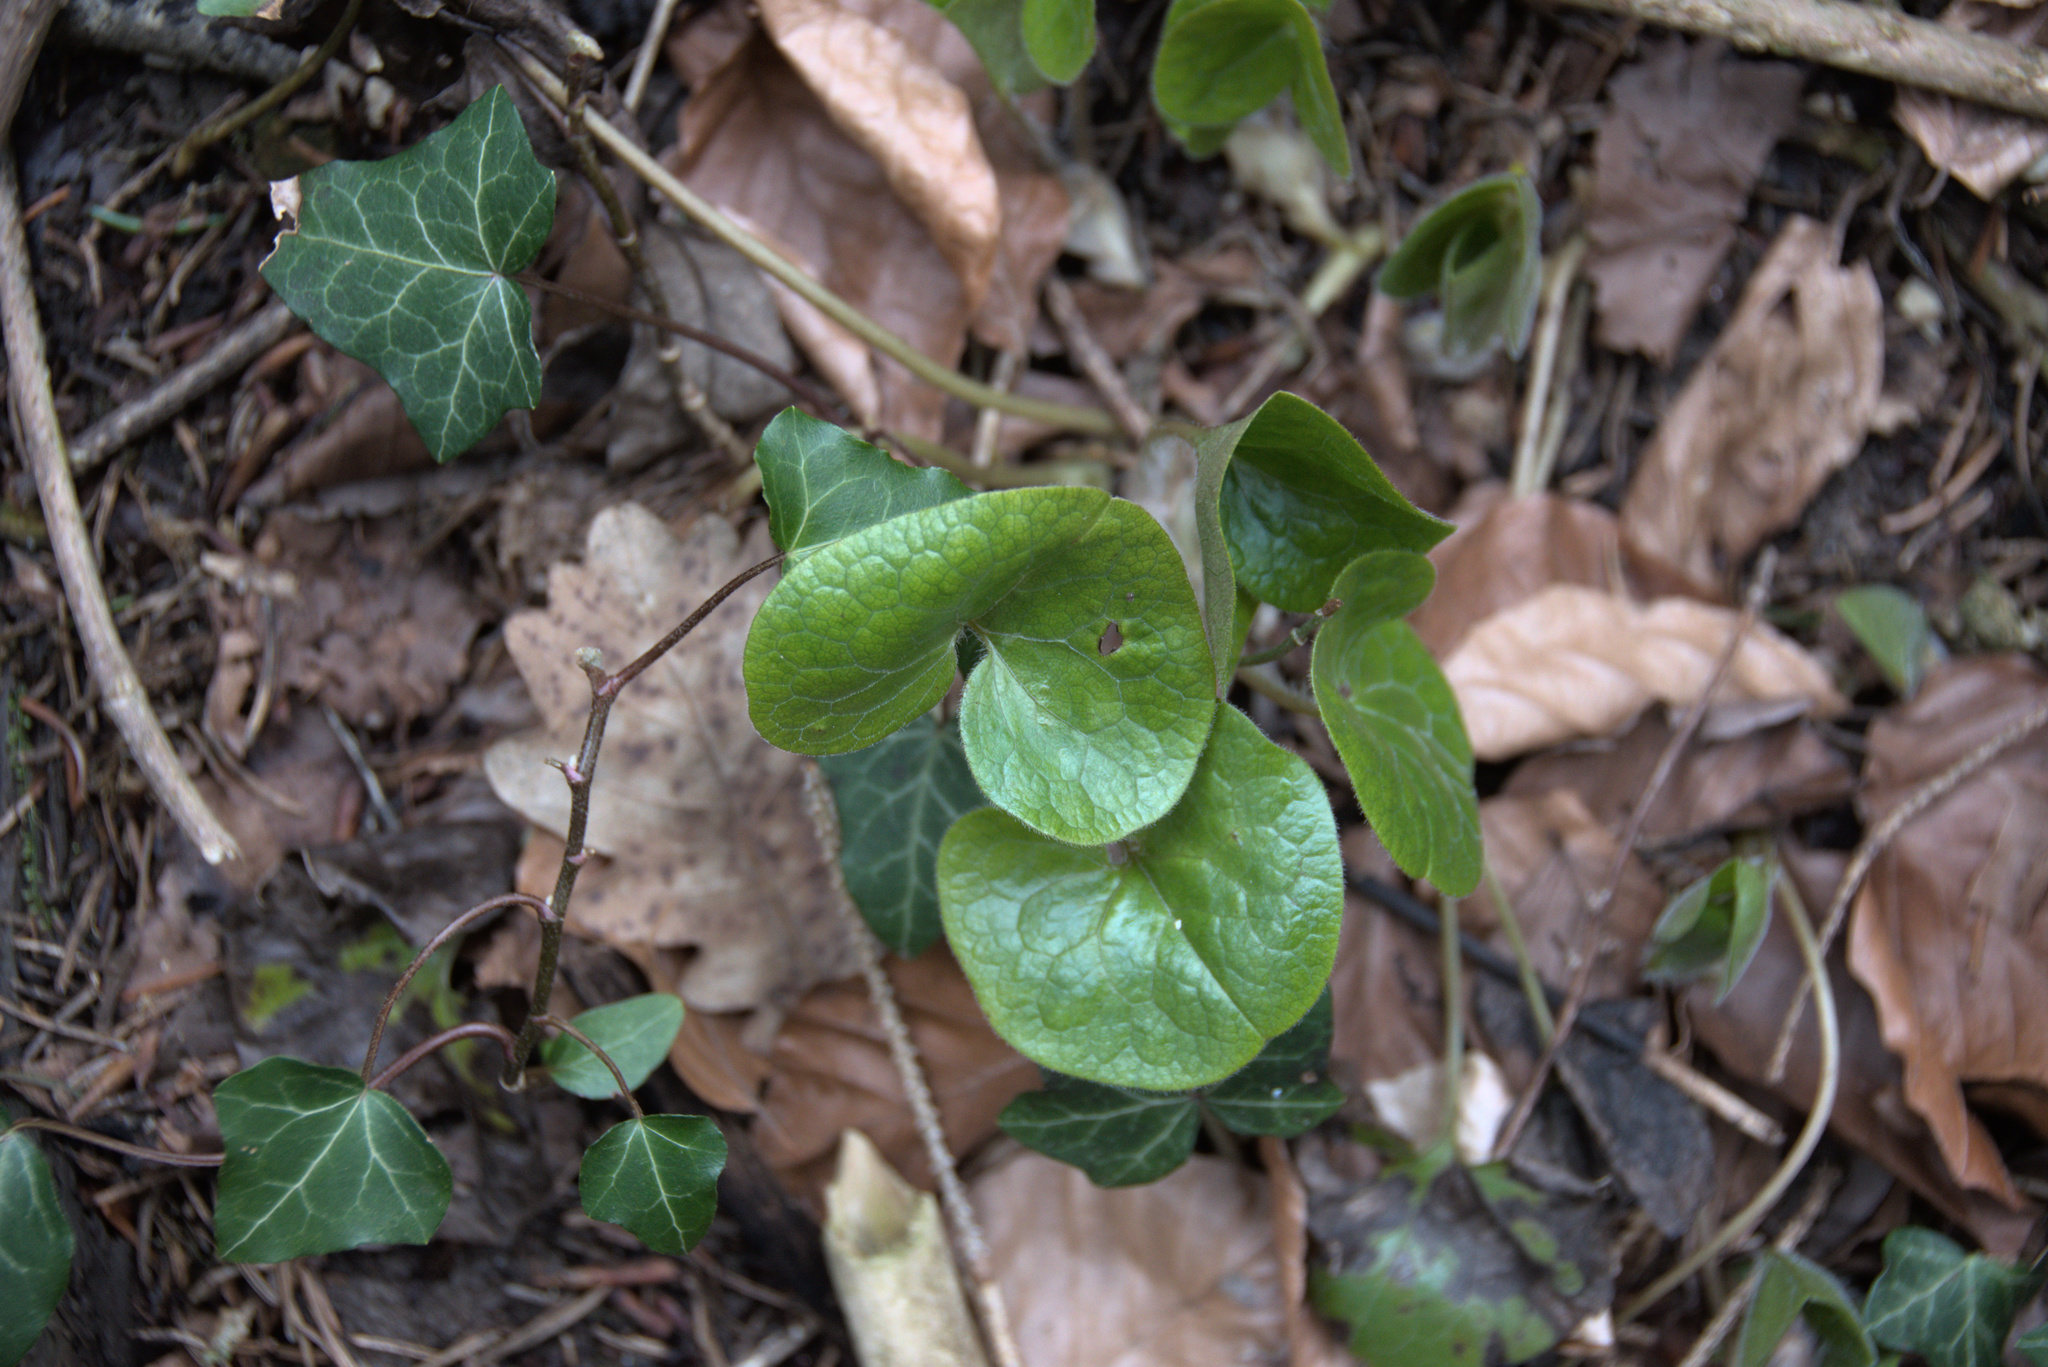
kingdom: Plantae
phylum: Tracheophyta
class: Magnoliopsida
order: Piperales
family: Aristolochiaceae
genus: Asarum
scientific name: Asarum europaeum
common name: Asarabacca
